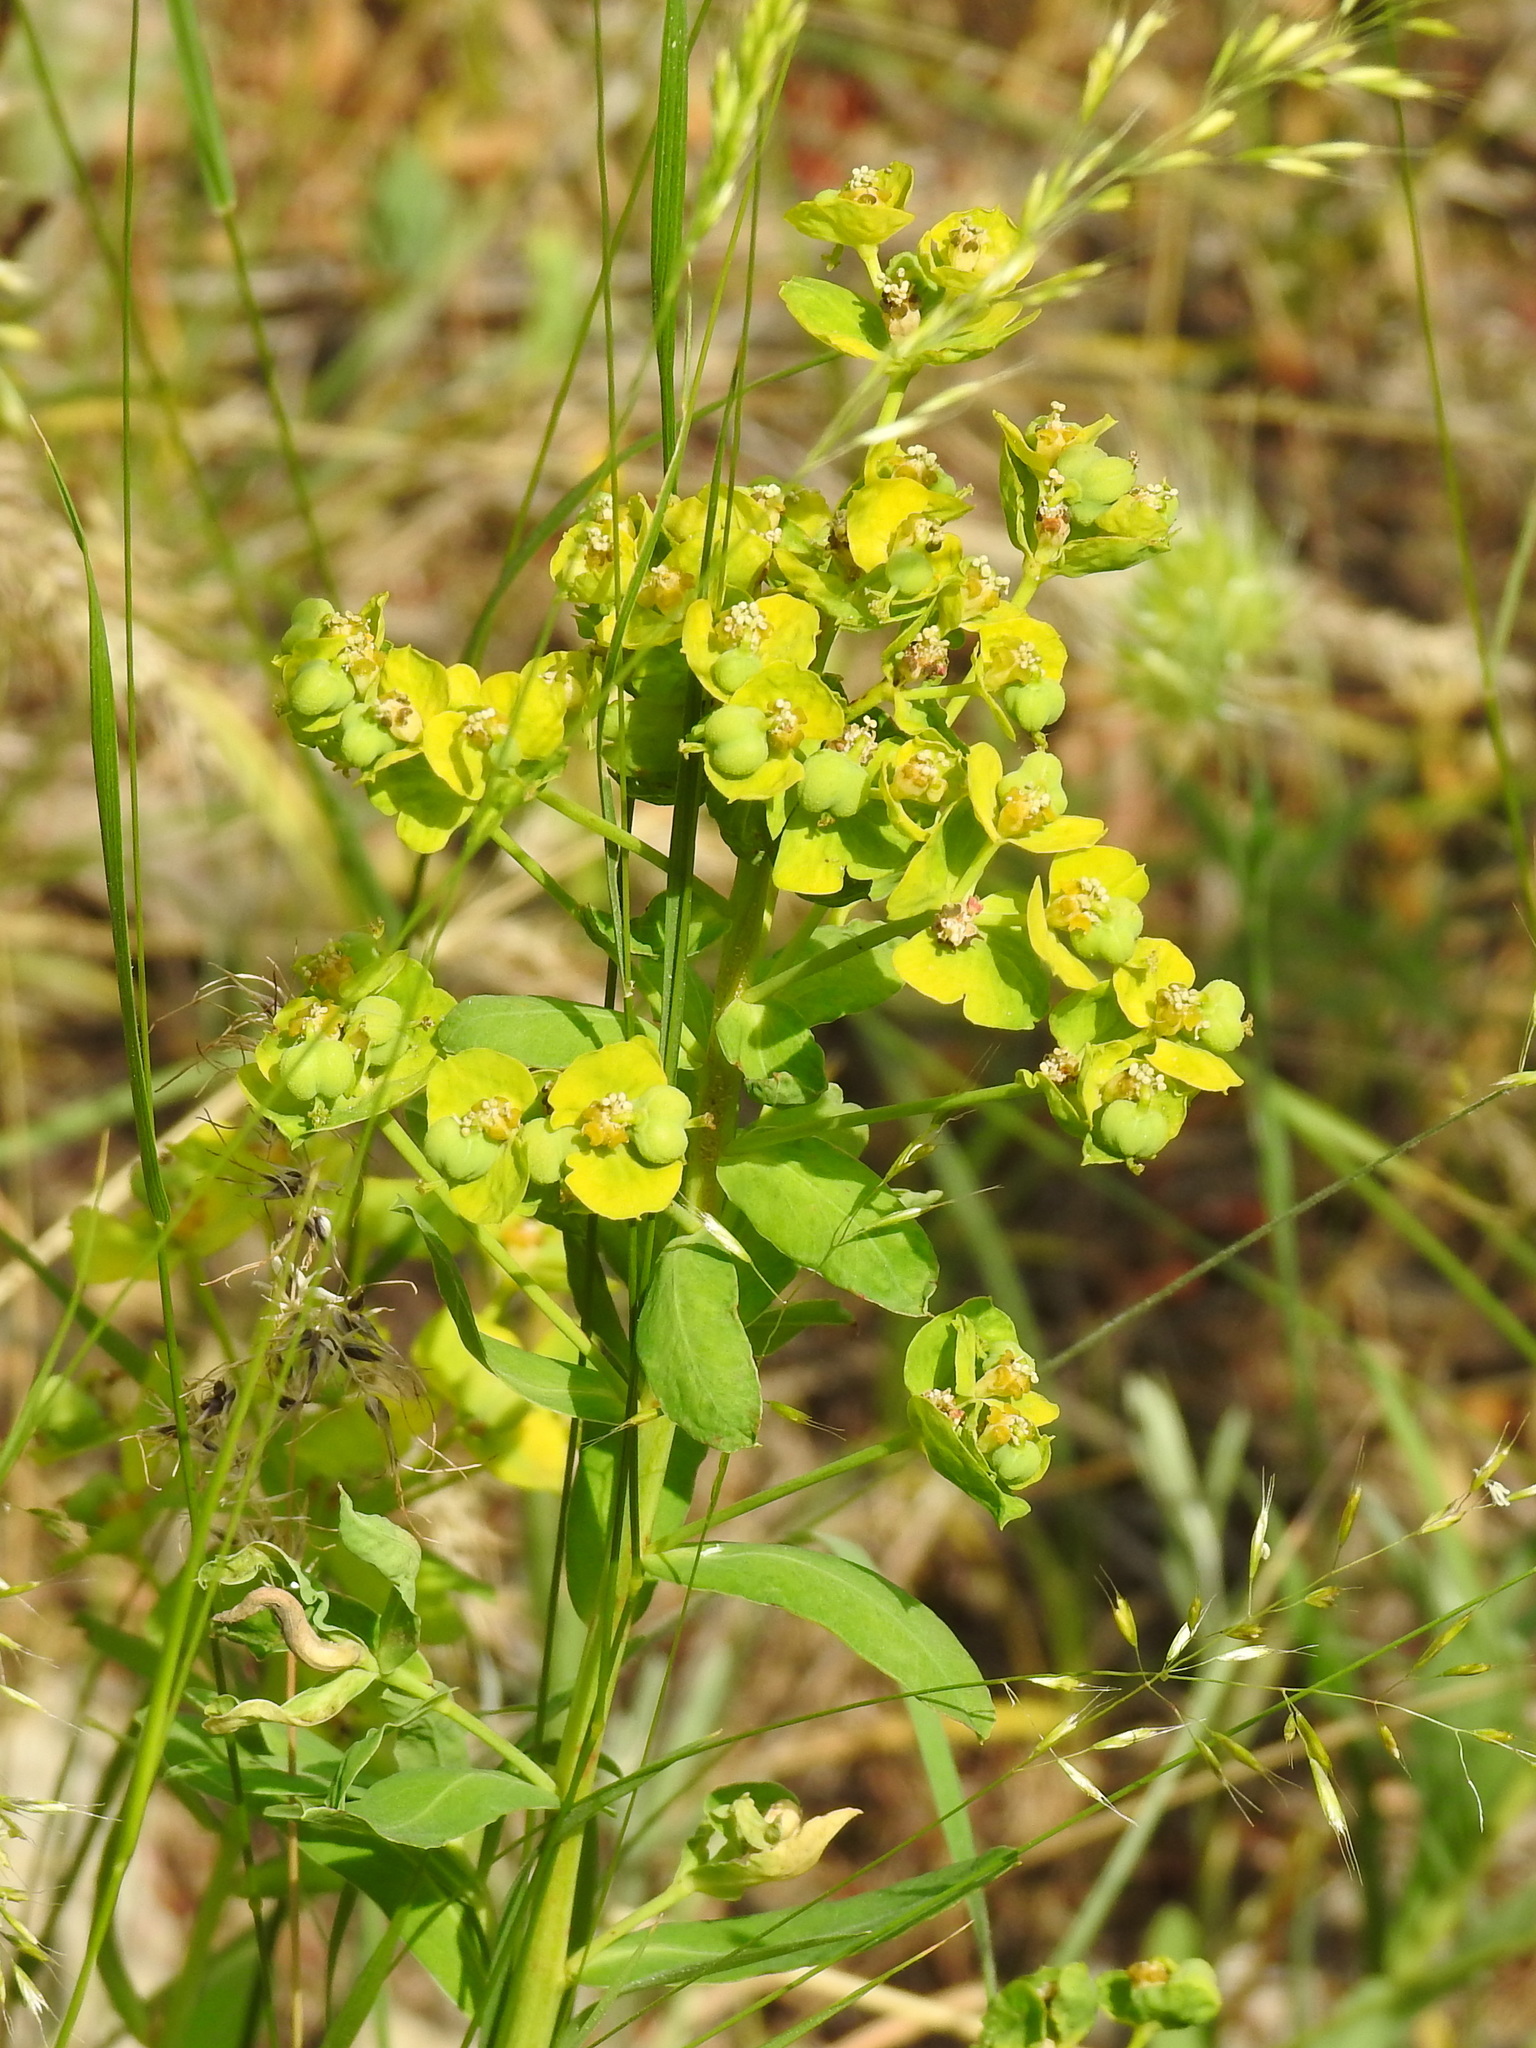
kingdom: Plantae
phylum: Tracheophyta
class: Magnoliopsida
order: Malpighiales
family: Euphorbiaceae
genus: Euphorbia
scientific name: Euphorbia iberica
